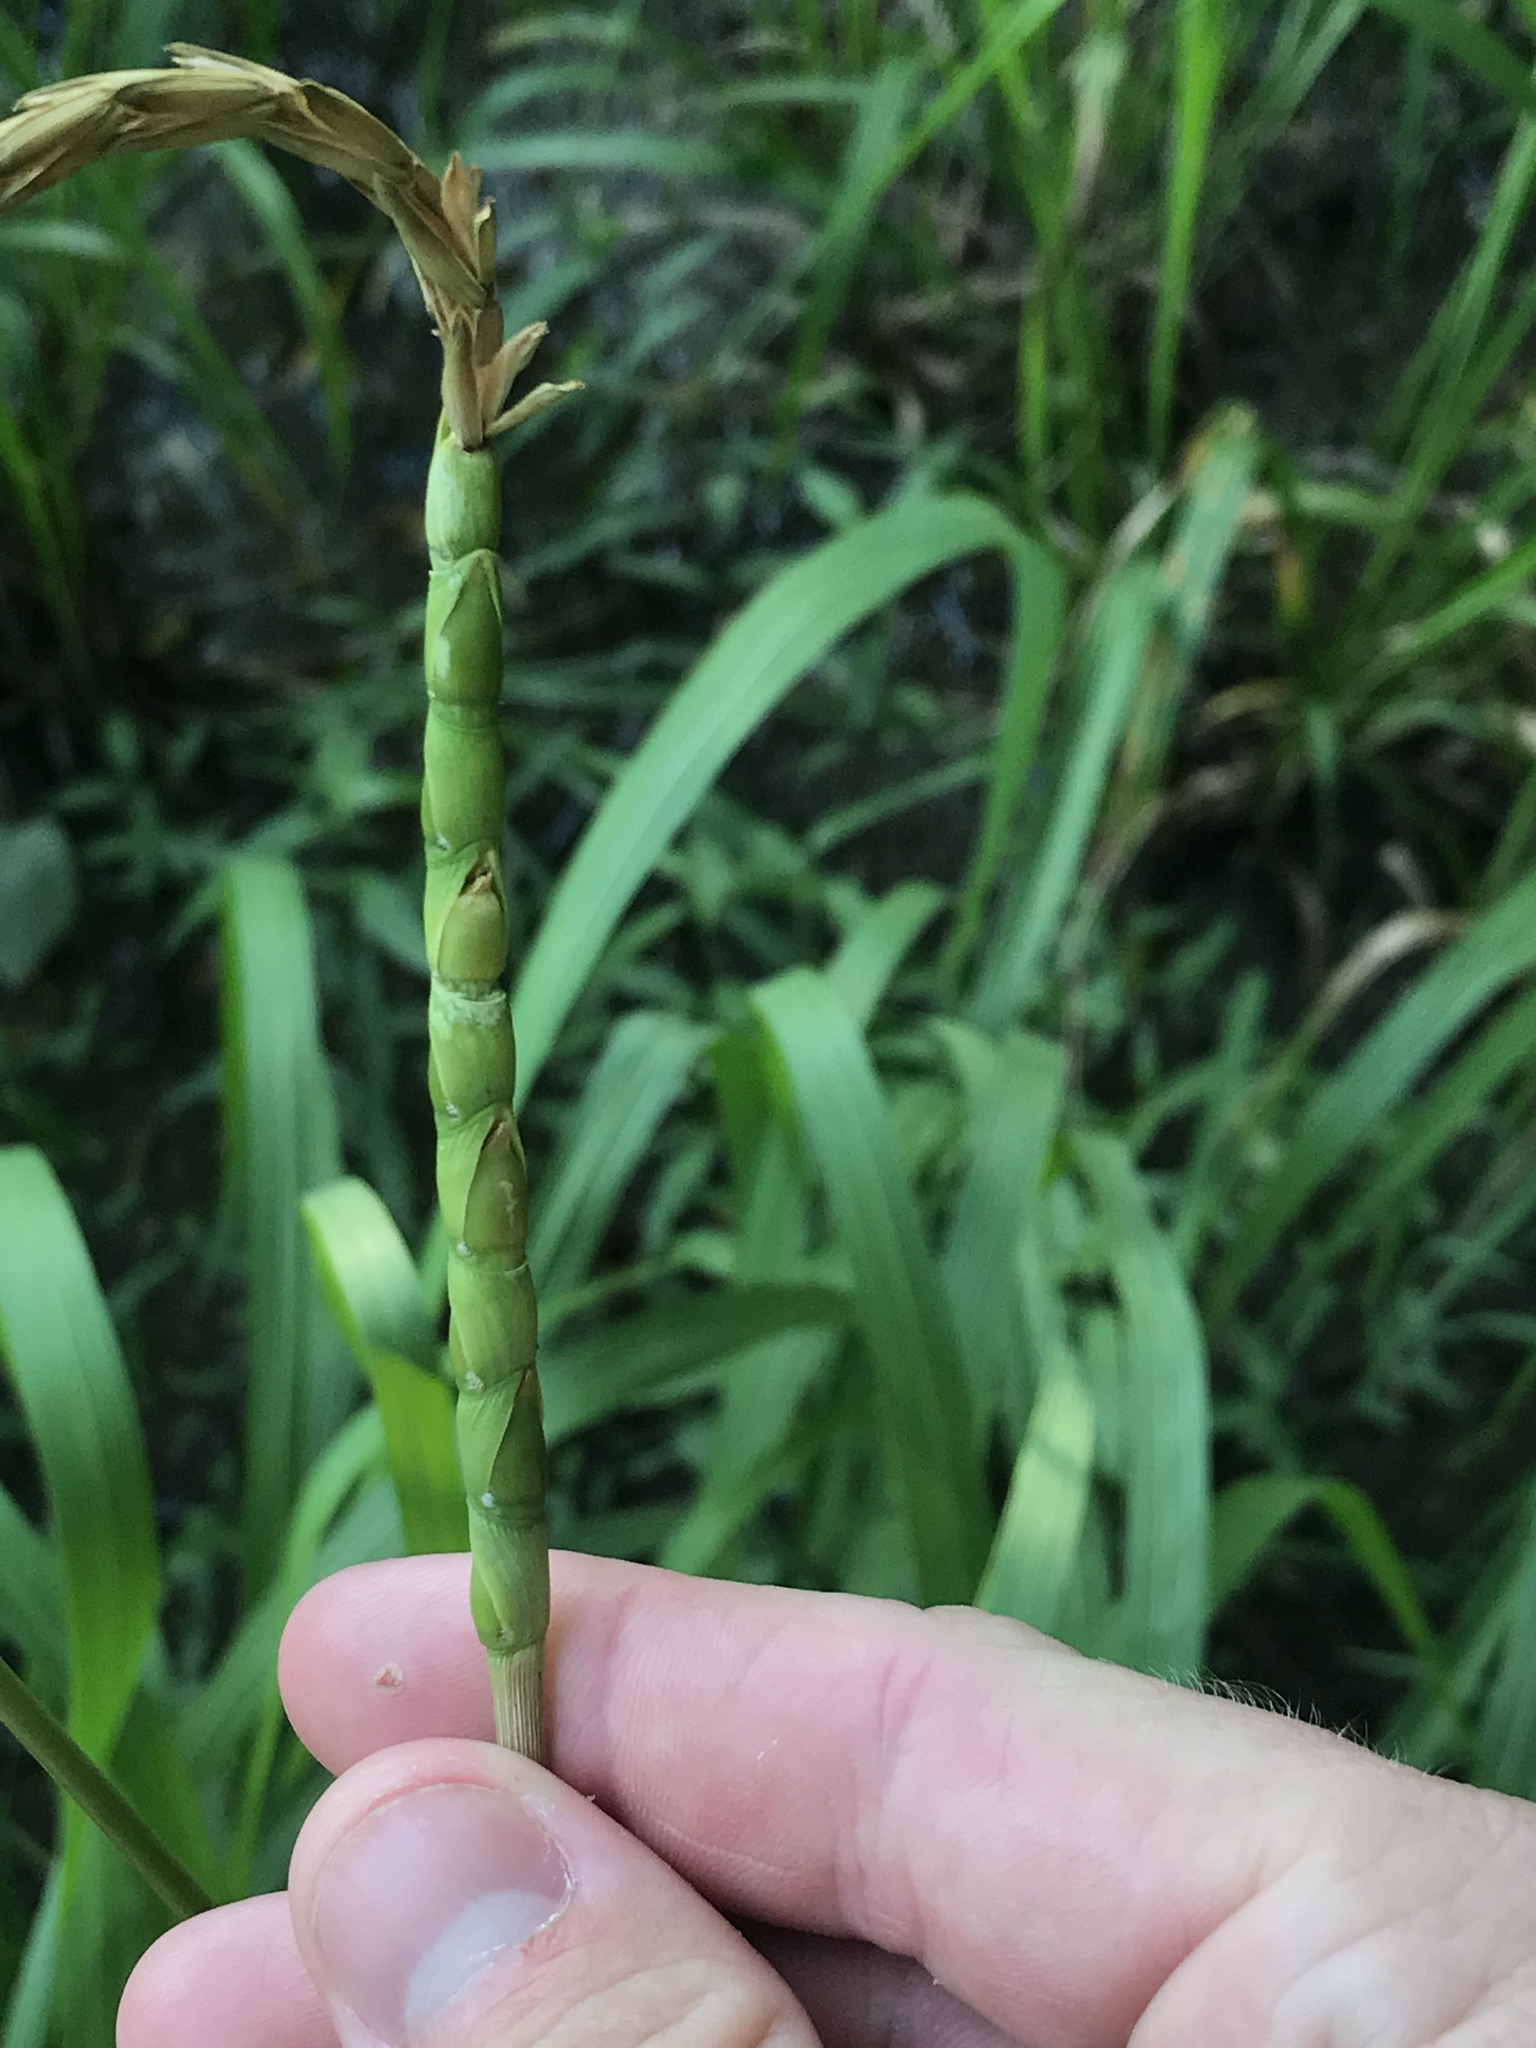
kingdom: Plantae
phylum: Tracheophyta
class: Liliopsida
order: Poales
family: Poaceae
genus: Tripsacum
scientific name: Tripsacum dactyloides
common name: Buffalo-grass
